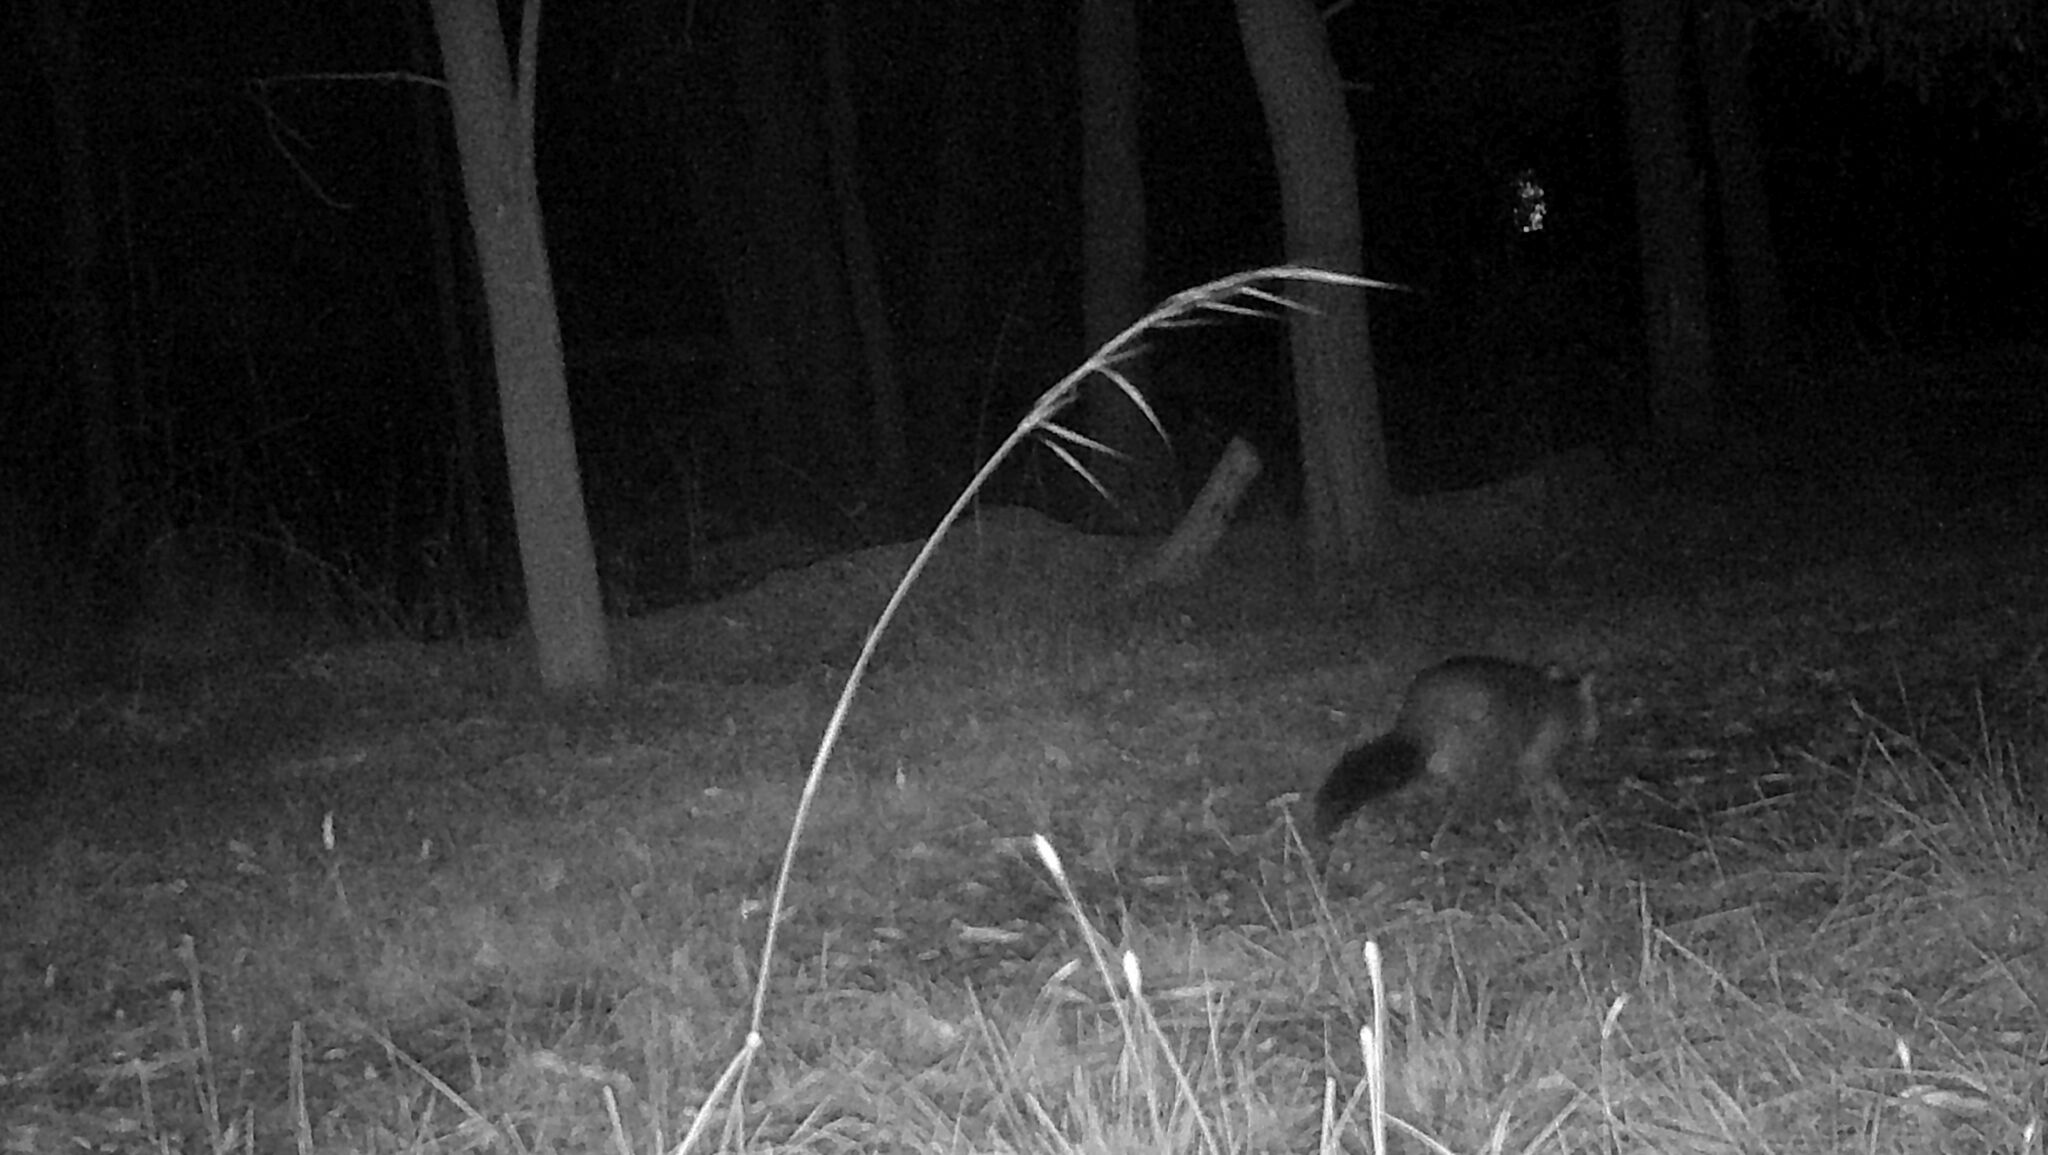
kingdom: Animalia
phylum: Chordata
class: Mammalia
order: Diprotodontia
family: Phalangeridae
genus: Trichosurus
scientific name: Trichosurus vulpecula
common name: Common brushtail
